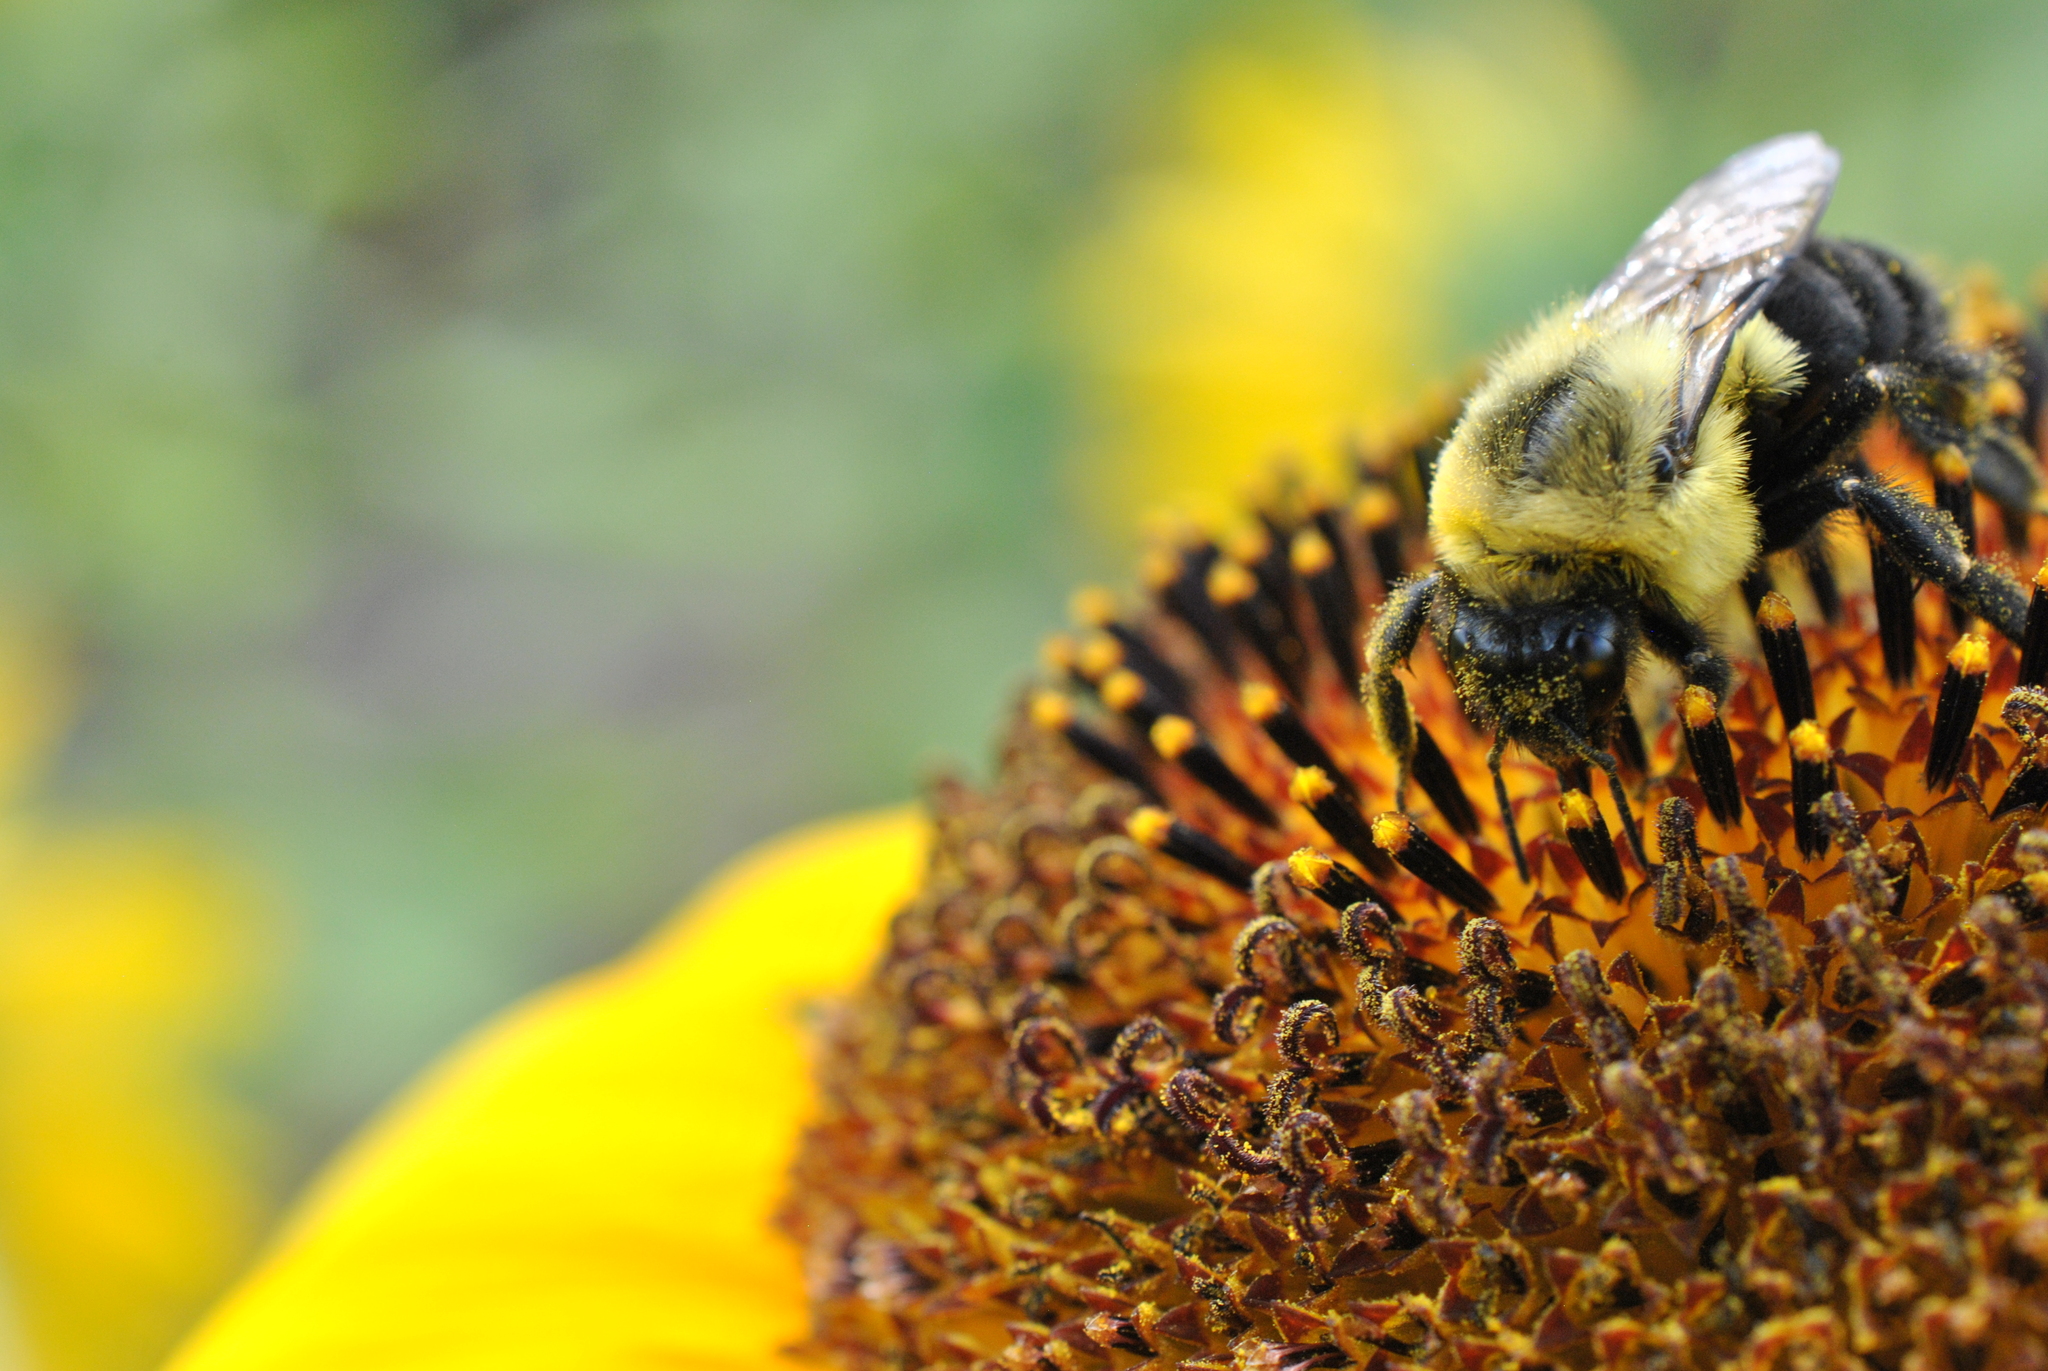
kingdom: Animalia
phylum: Arthropoda
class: Insecta
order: Hymenoptera
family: Apidae
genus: Bombus
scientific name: Bombus impatiens
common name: Common eastern bumble bee
